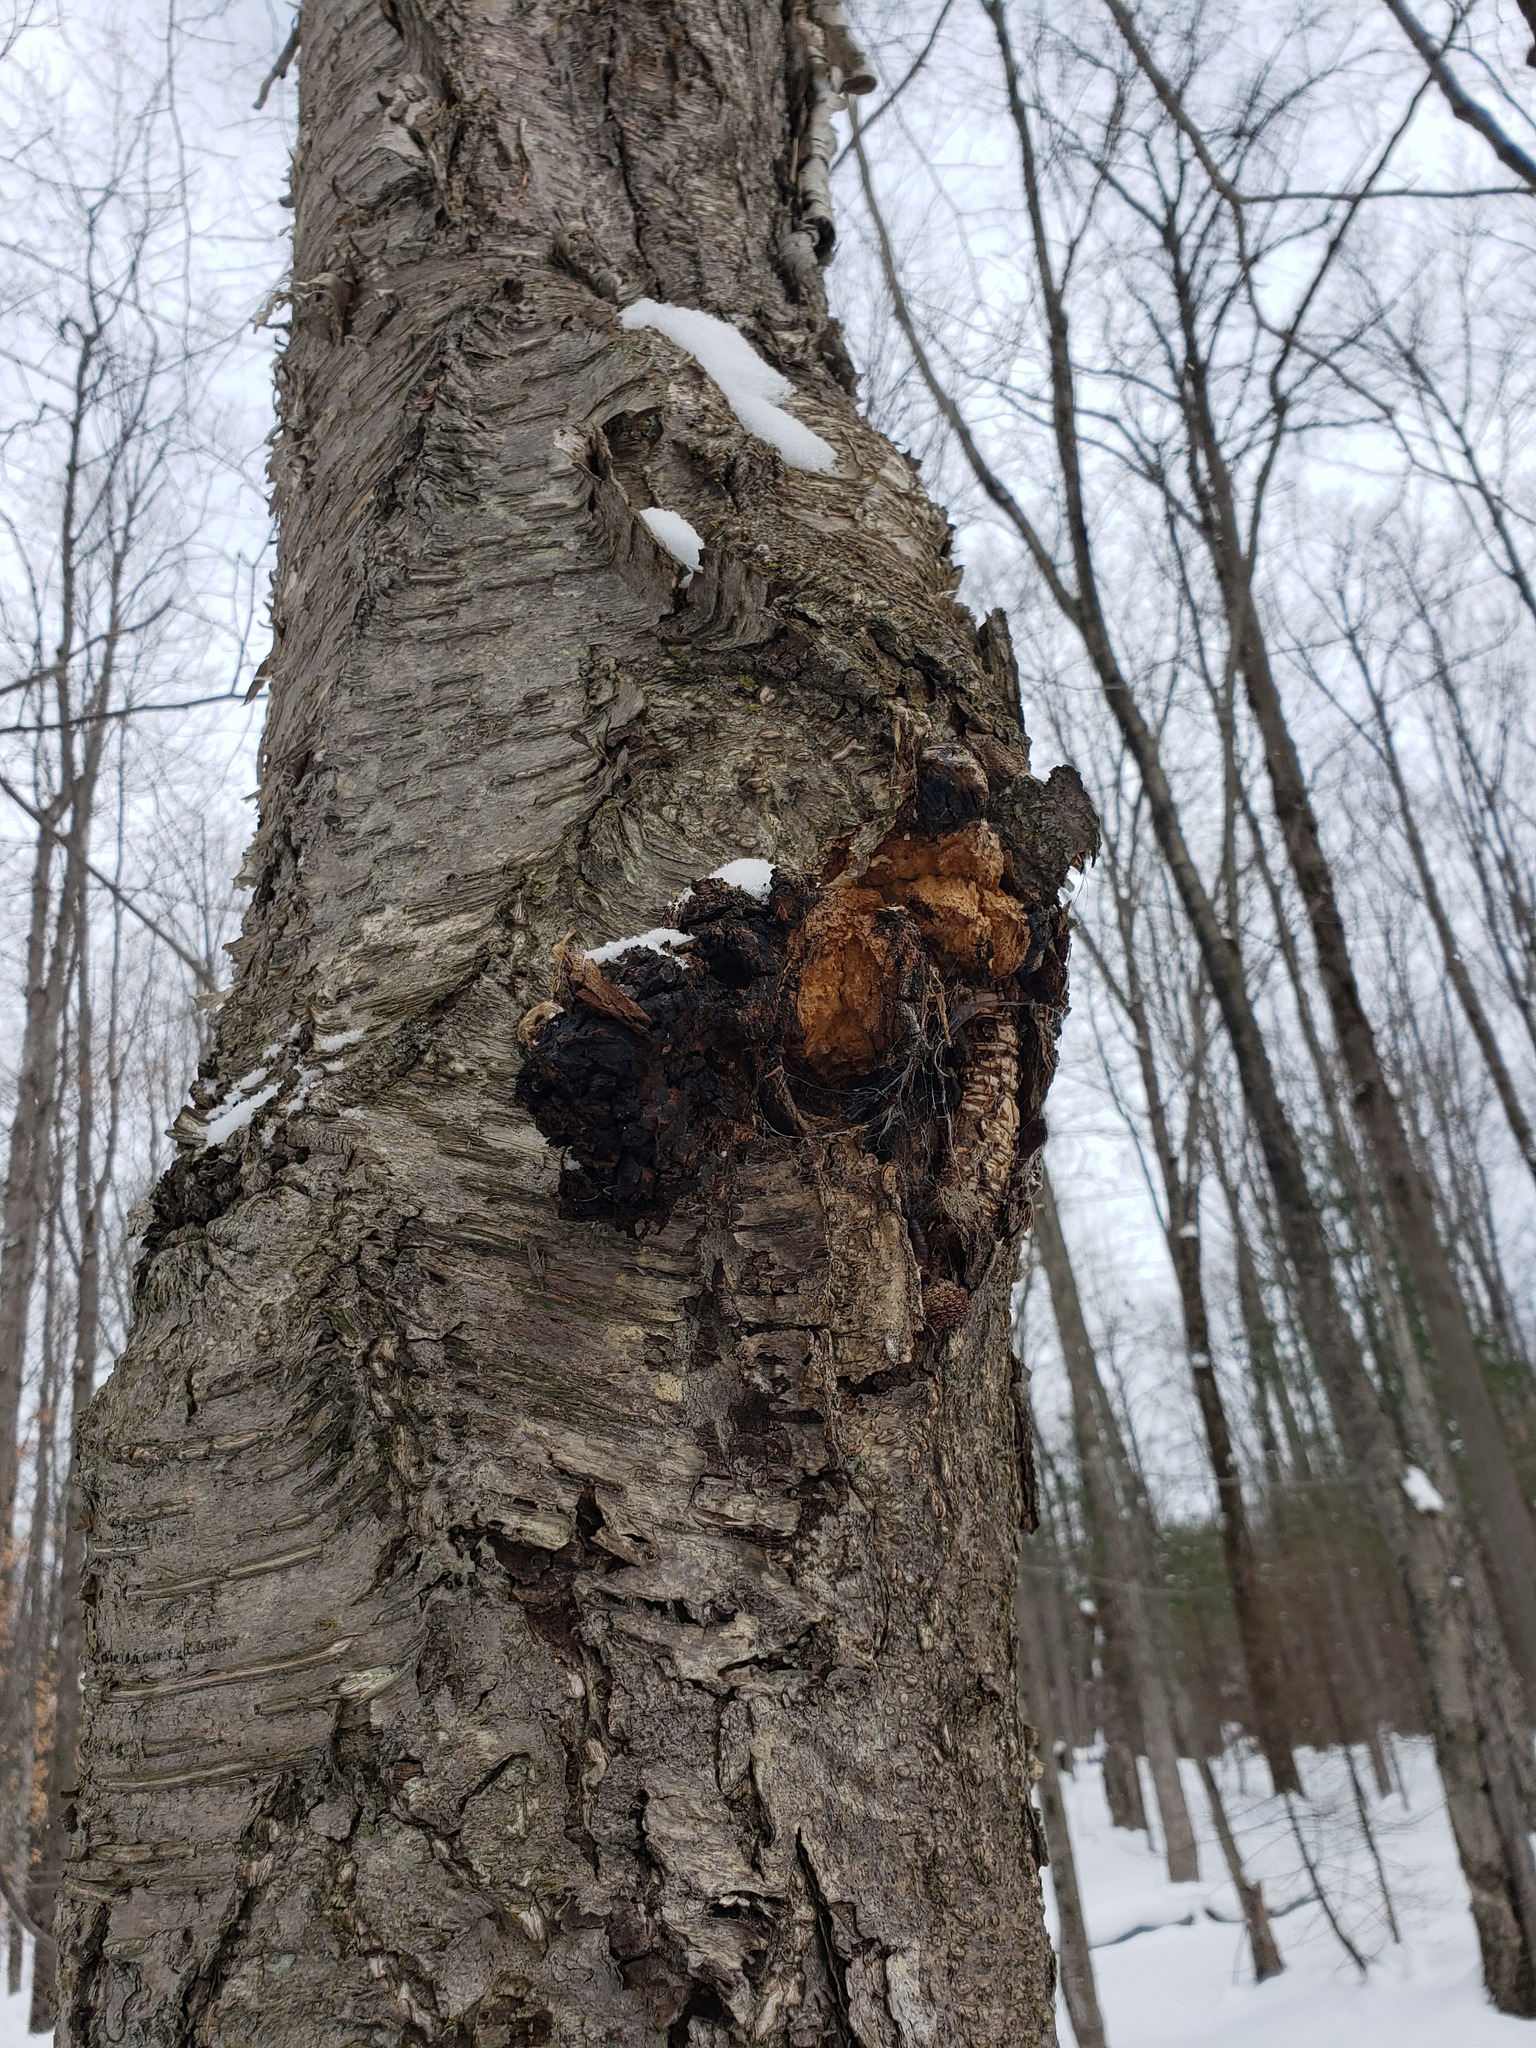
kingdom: Fungi
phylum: Basidiomycota
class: Agaricomycetes
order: Hymenochaetales
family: Hymenochaetaceae
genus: Inonotus
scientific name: Inonotus obliquus
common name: Chaga
